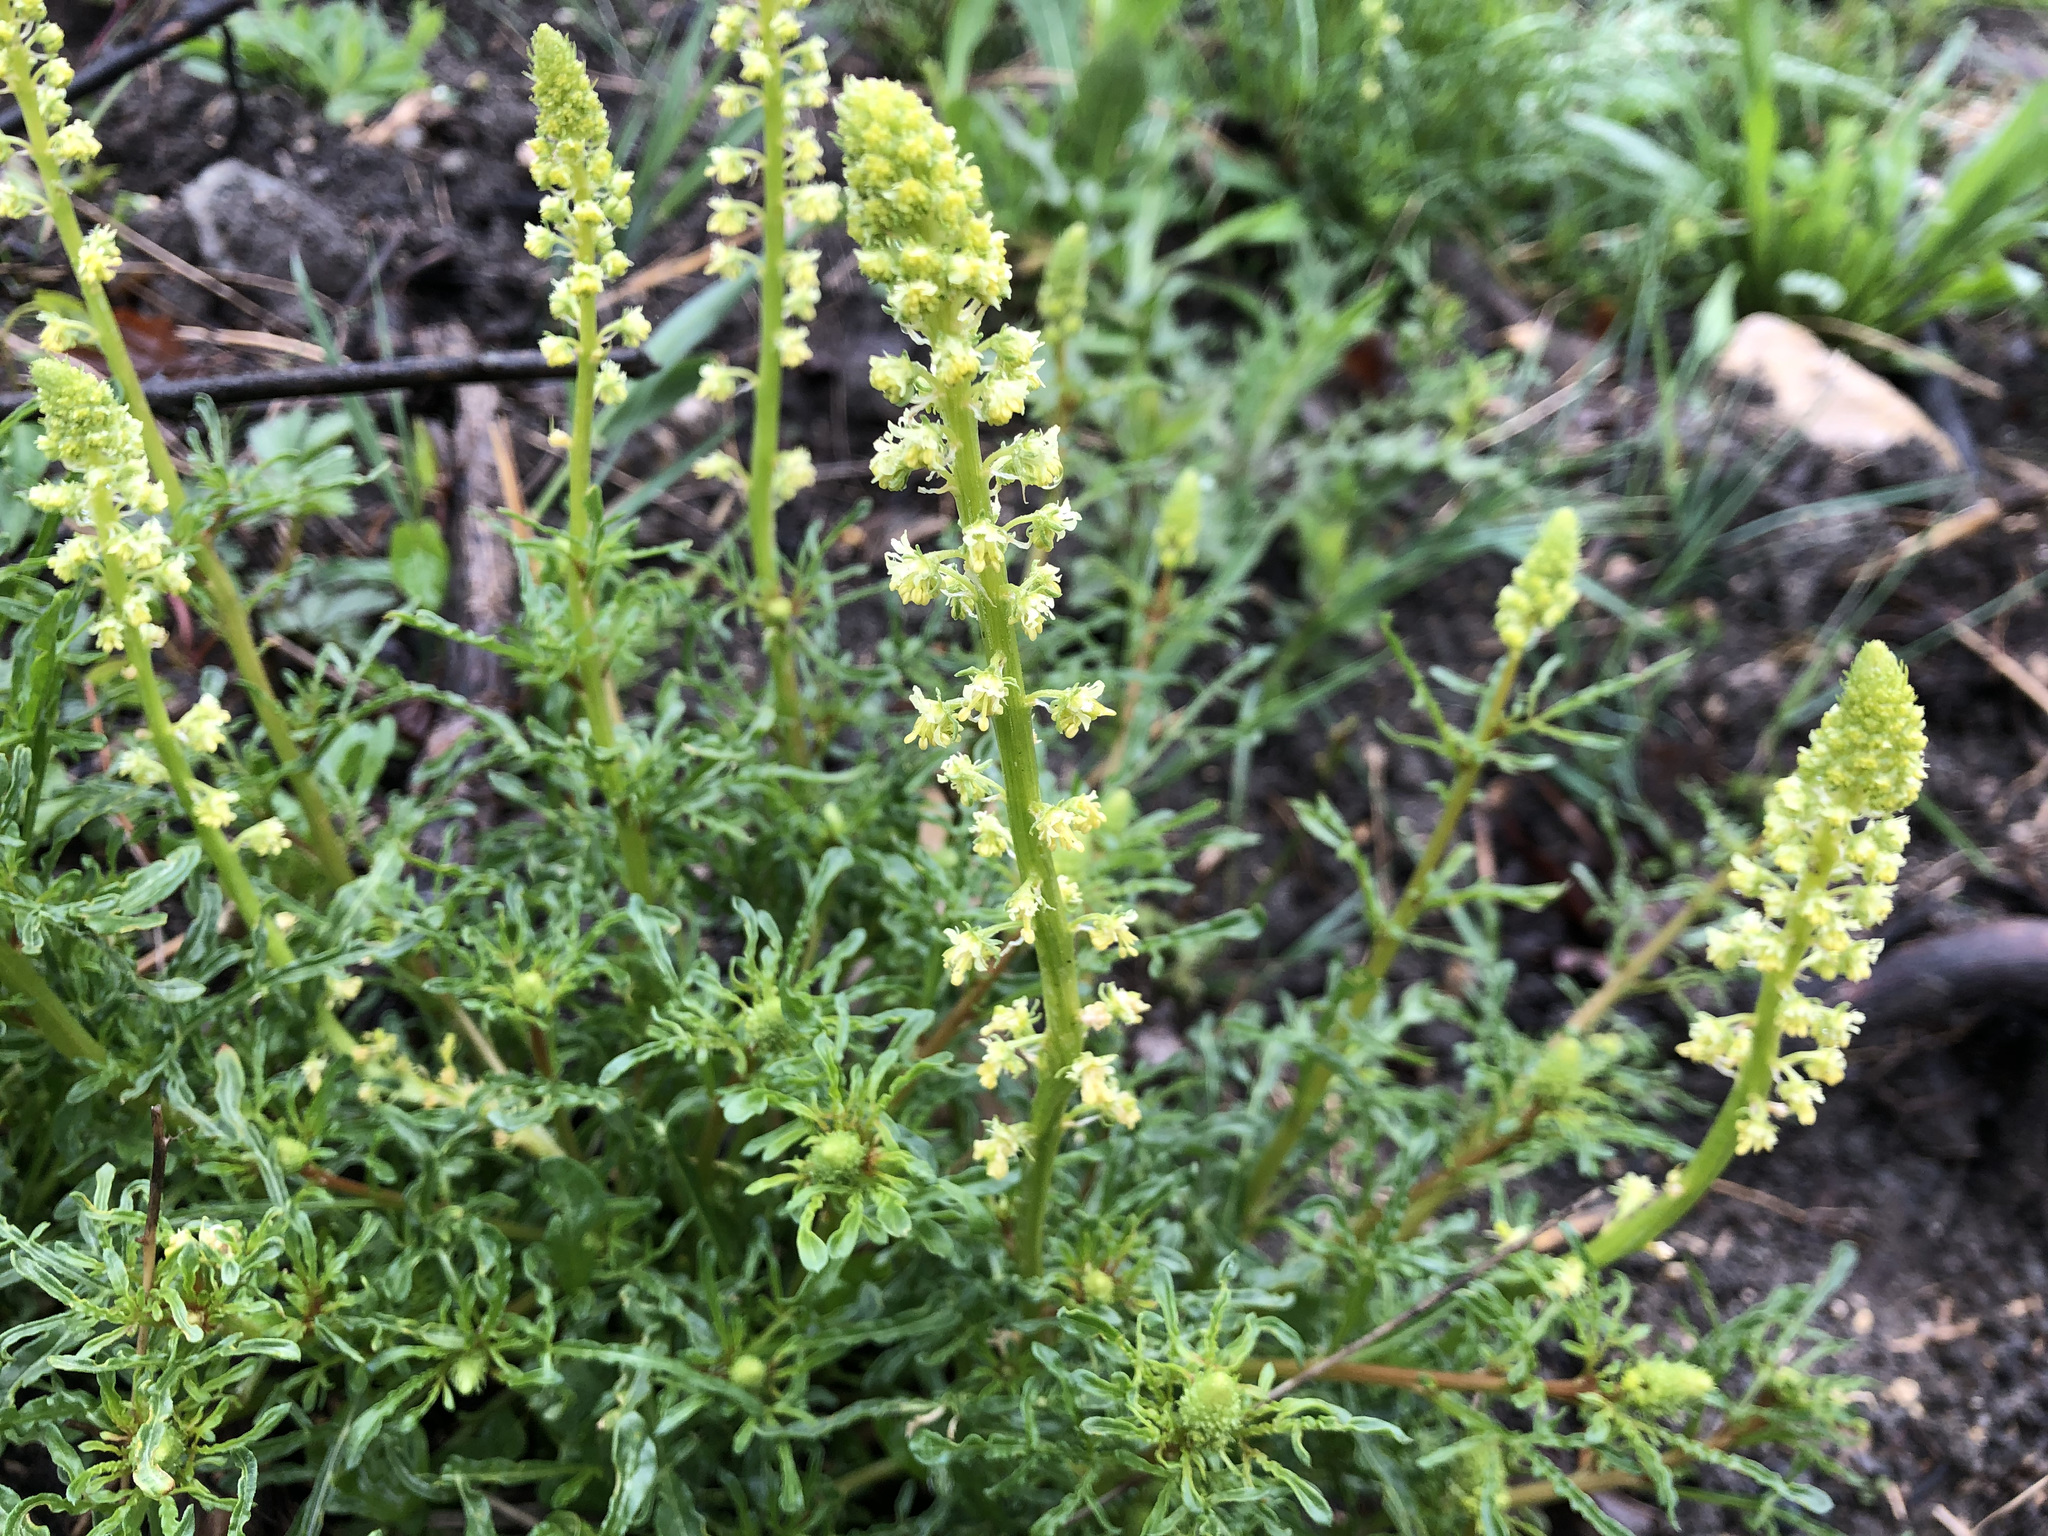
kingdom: Plantae
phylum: Tracheophyta
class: Magnoliopsida
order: Brassicales
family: Resedaceae
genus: Reseda
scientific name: Reseda lutea
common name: Wild mignonette
